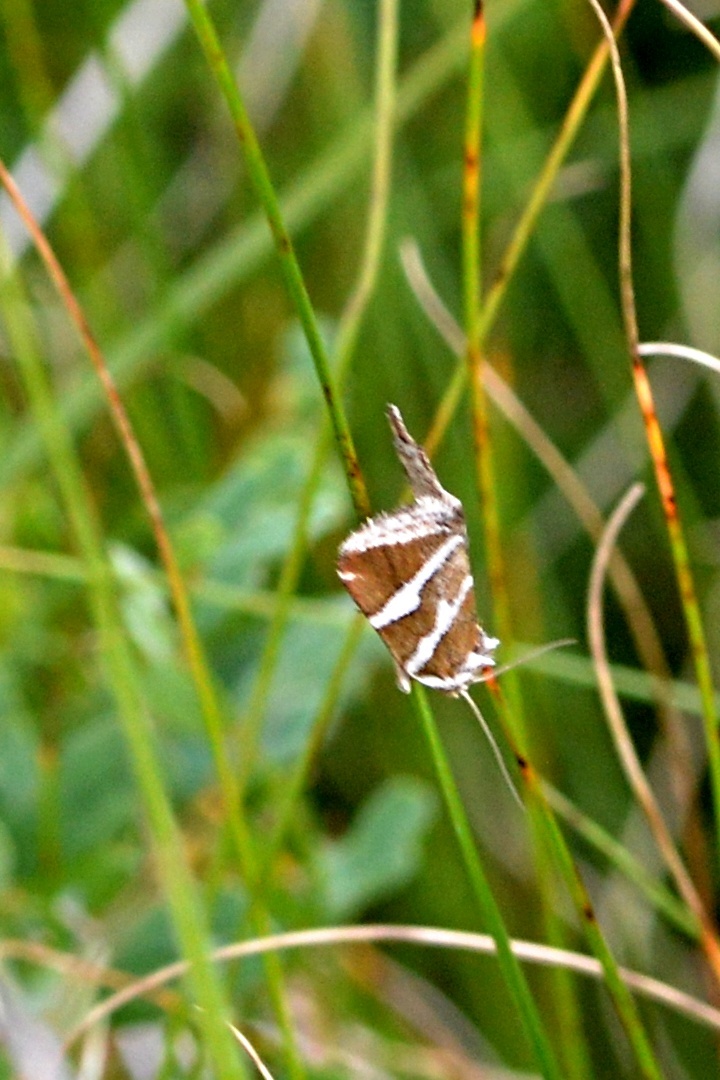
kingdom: Animalia
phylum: Arthropoda
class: Insecta
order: Lepidoptera
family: Noctuidae
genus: Deltote
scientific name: Deltote bankiana
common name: Silver barred
